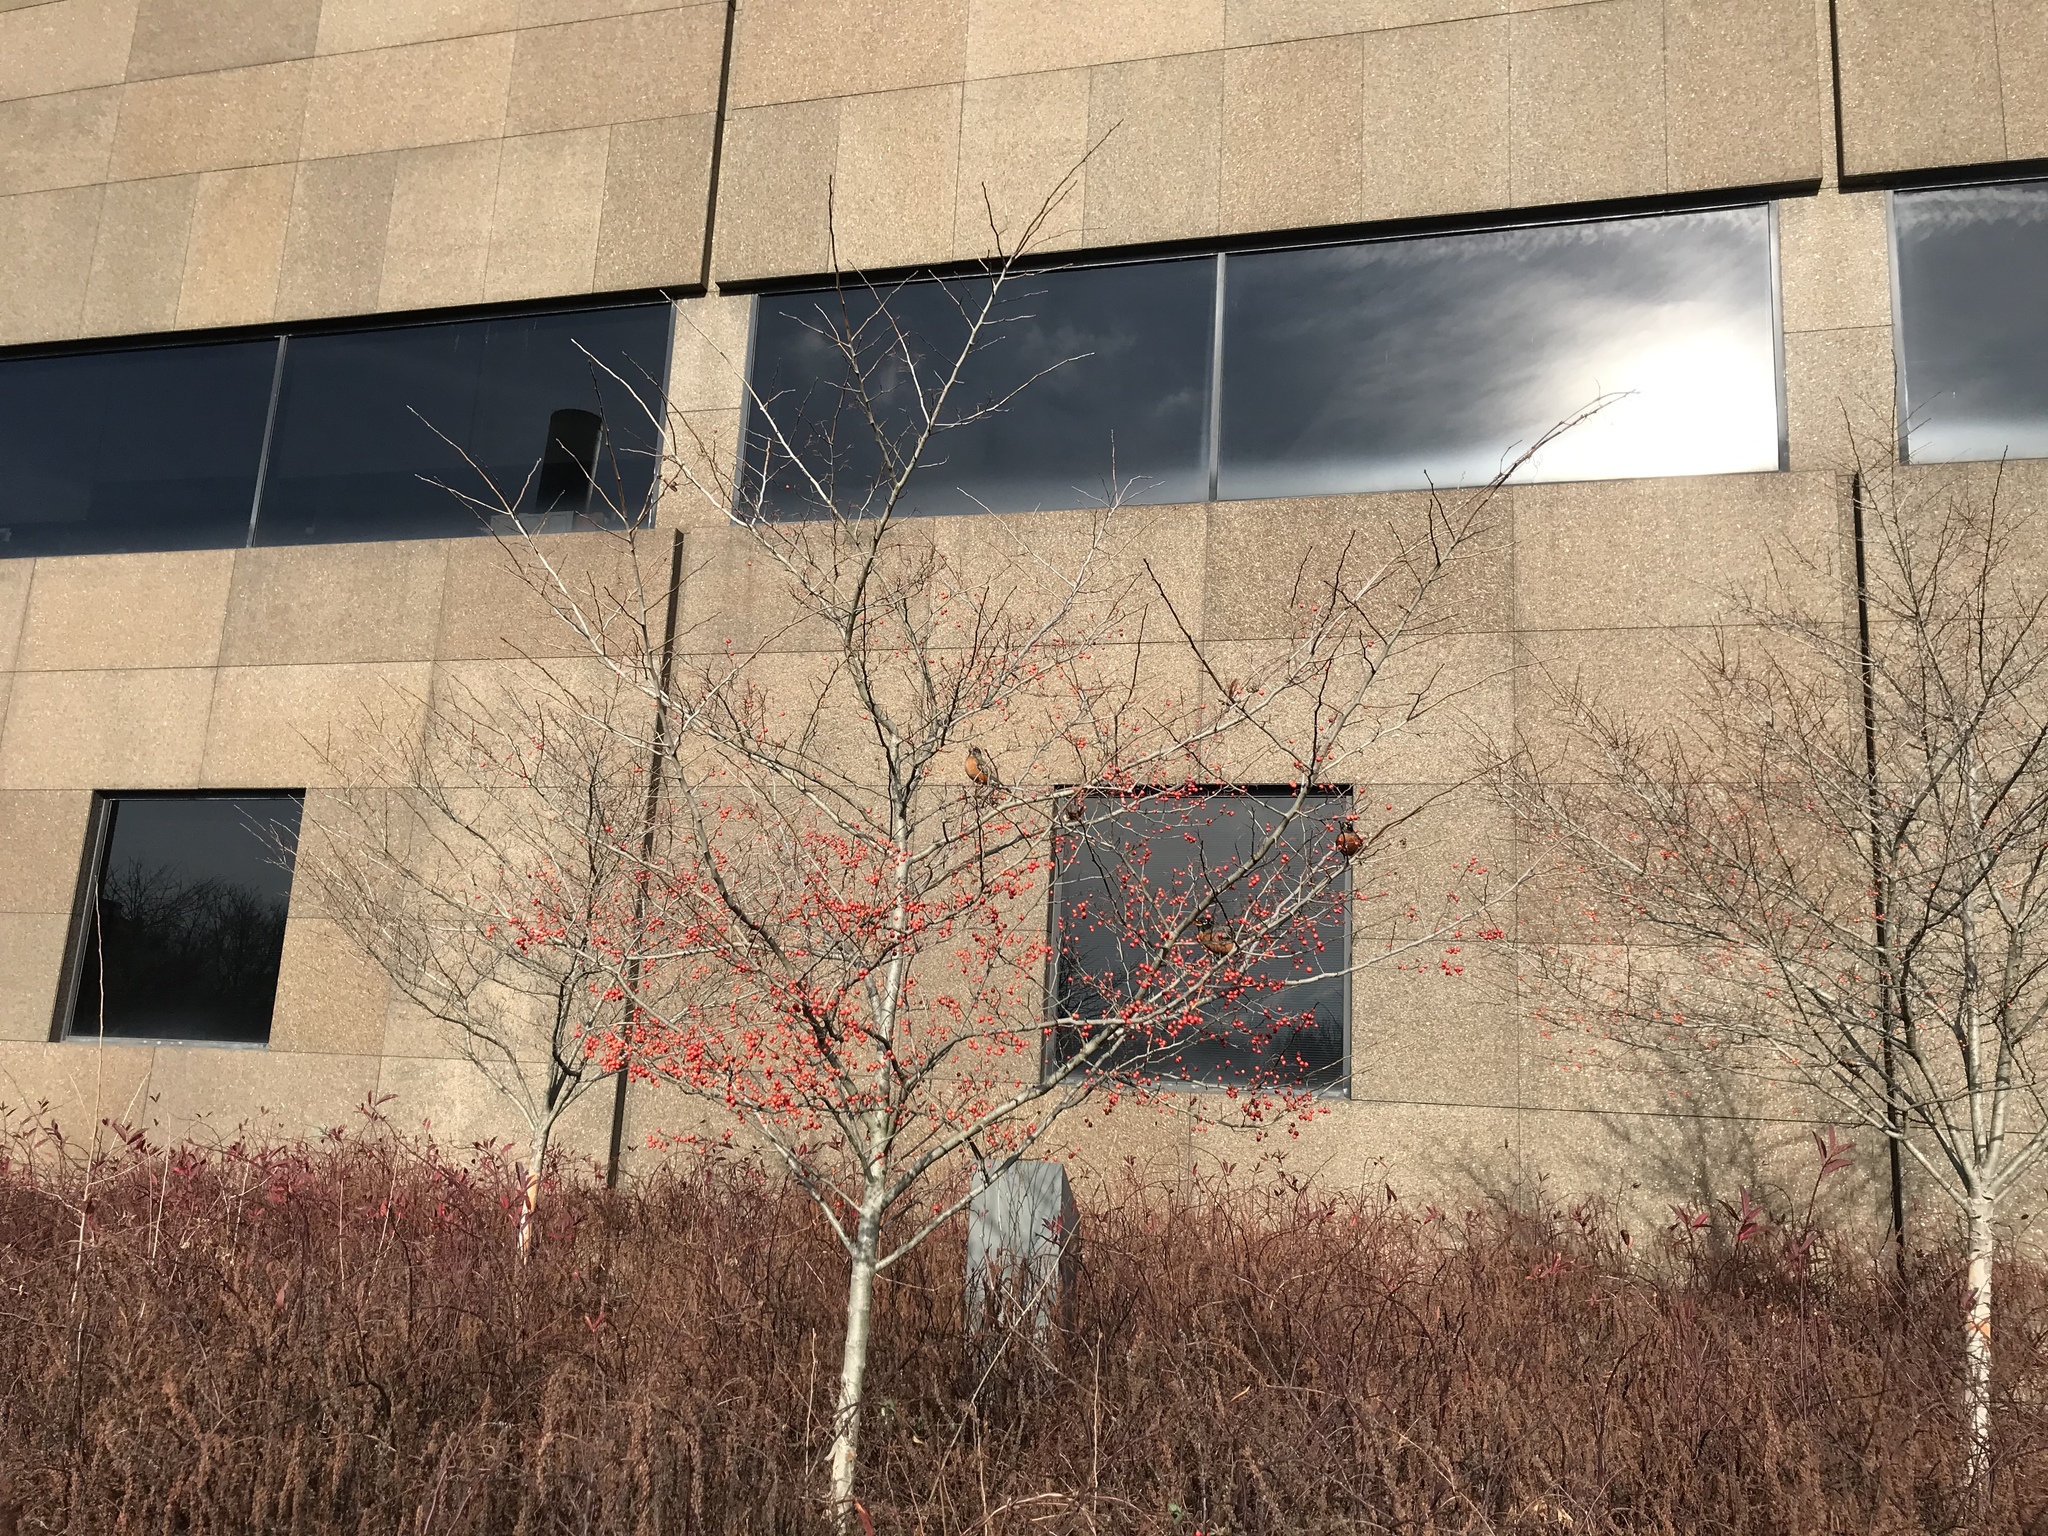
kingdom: Animalia
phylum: Chordata
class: Aves
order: Passeriformes
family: Turdidae
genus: Turdus
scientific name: Turdus migratorius
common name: American robin
